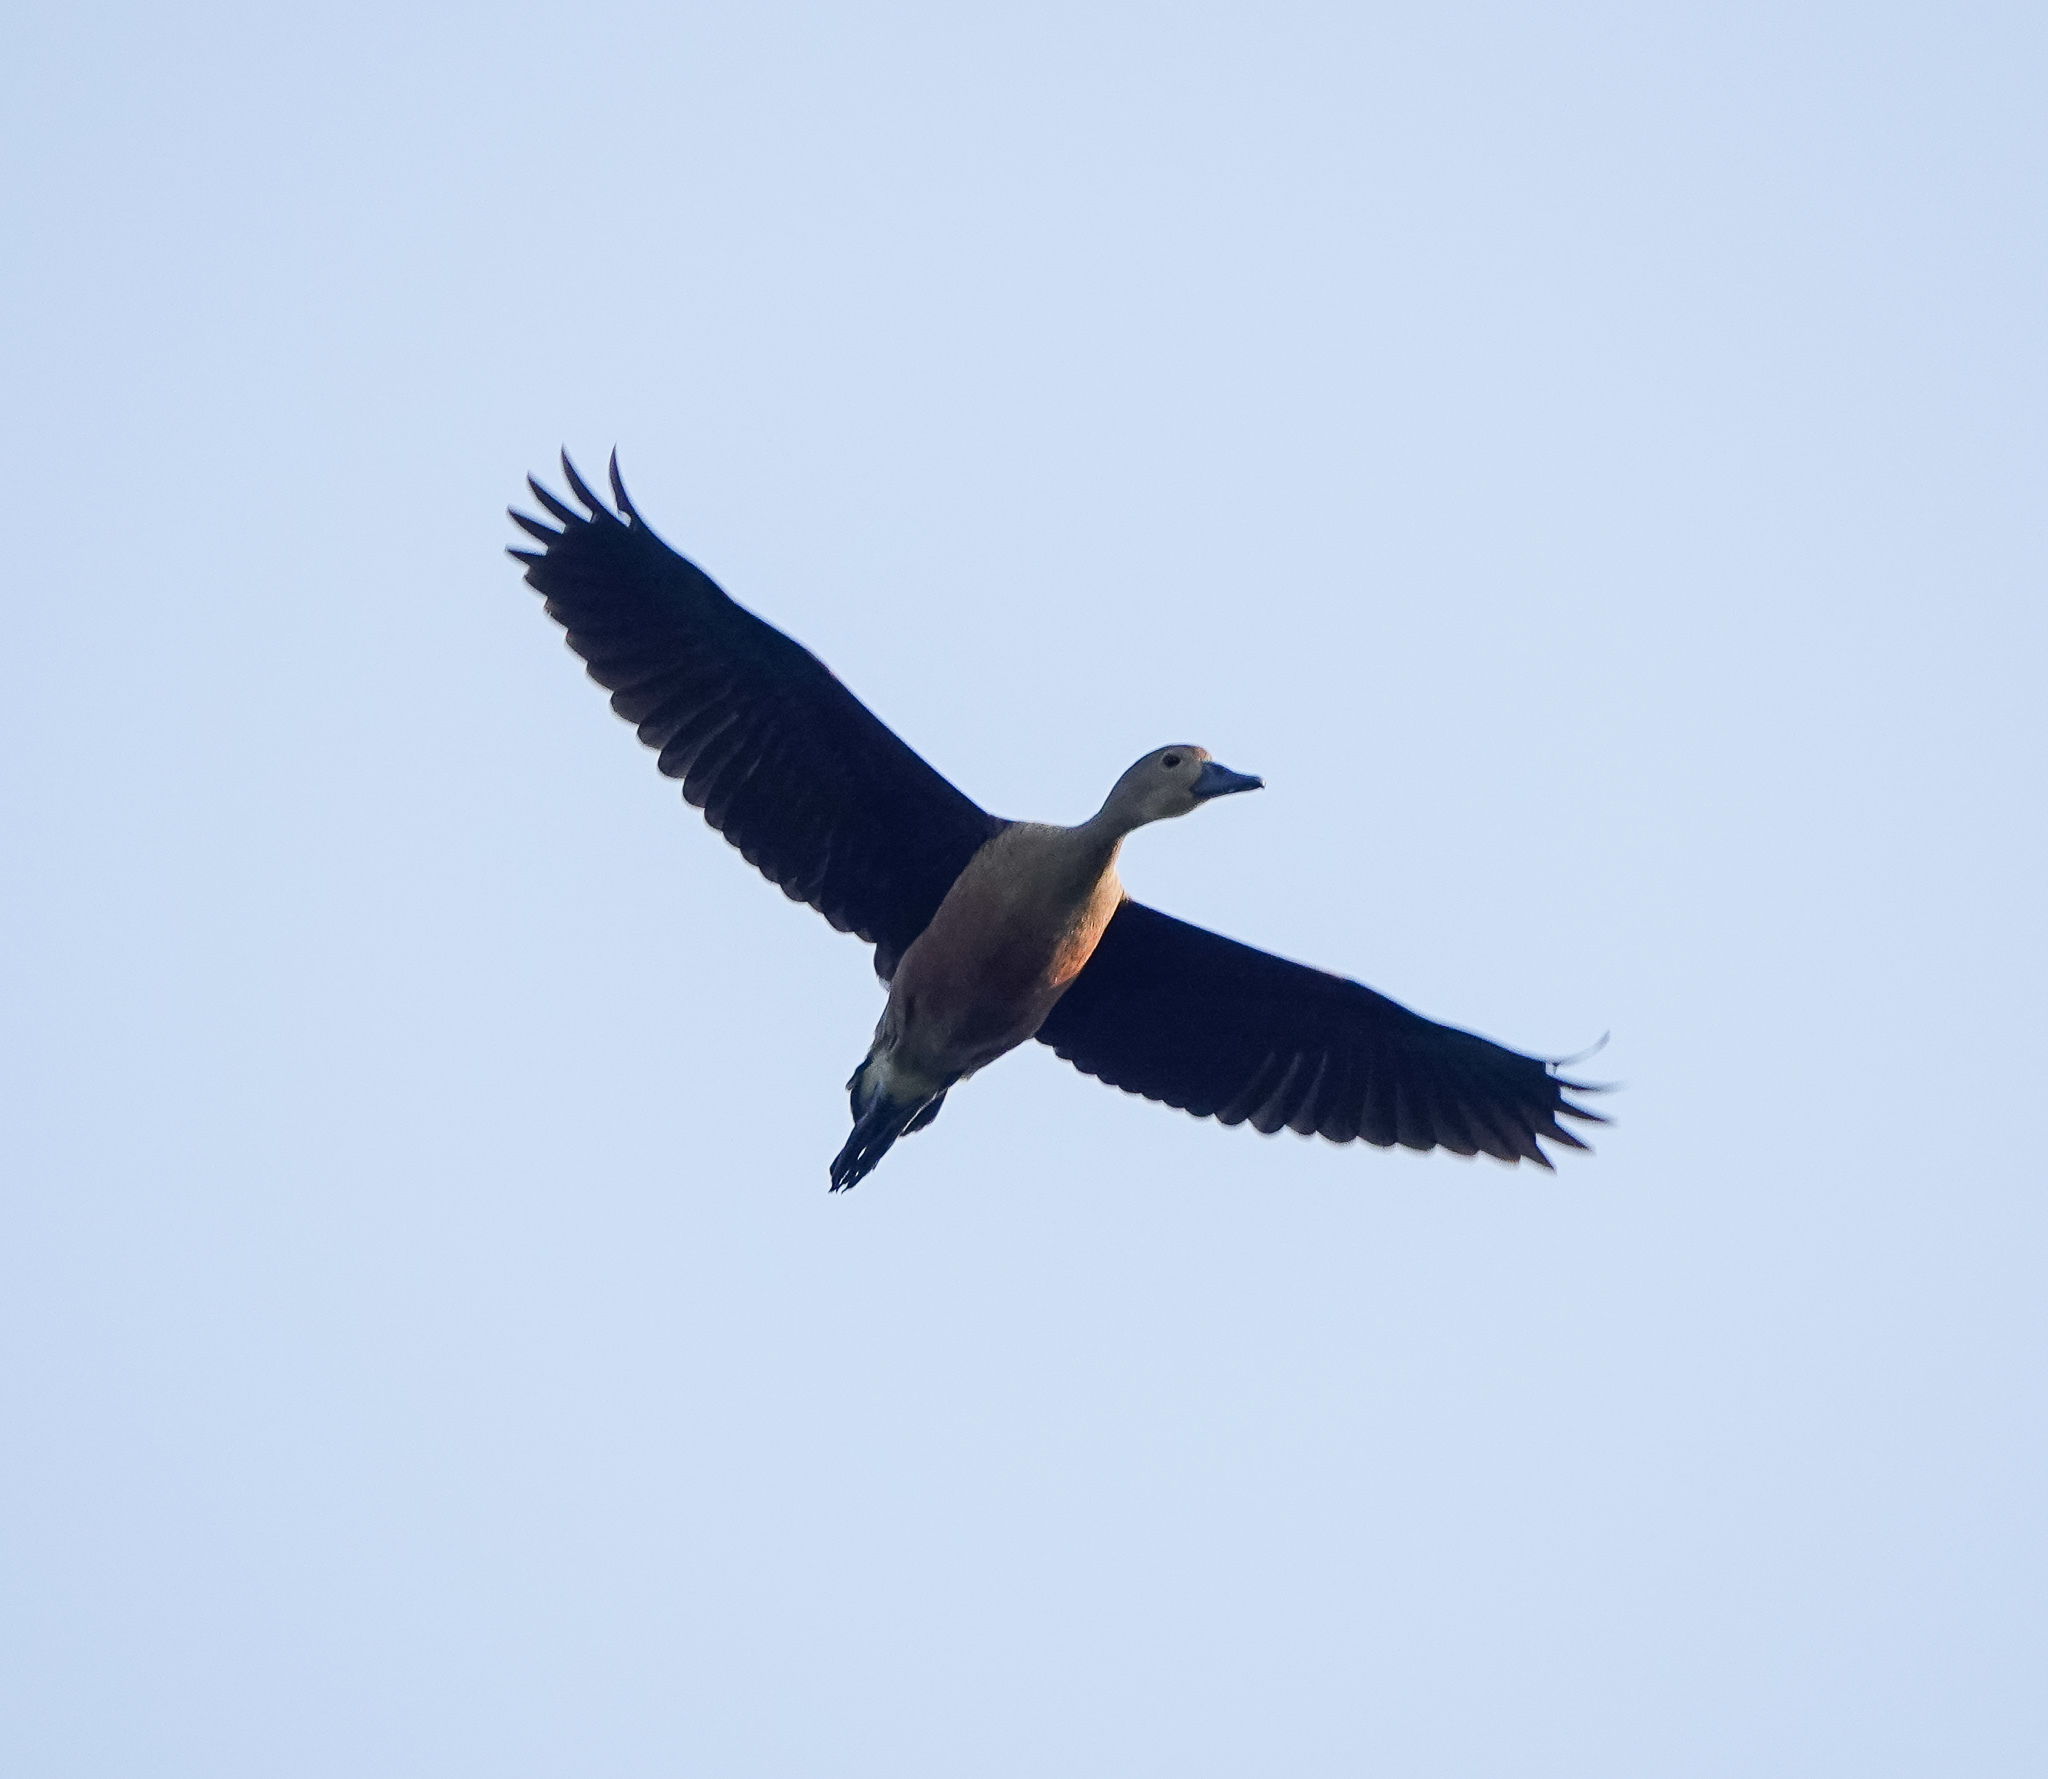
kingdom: Animalia
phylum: Chordata
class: Aves
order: Anseriformes
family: Anatidae
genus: Dendrocygna
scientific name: Dendrocygna javanica
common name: Lesser whistling-duck
